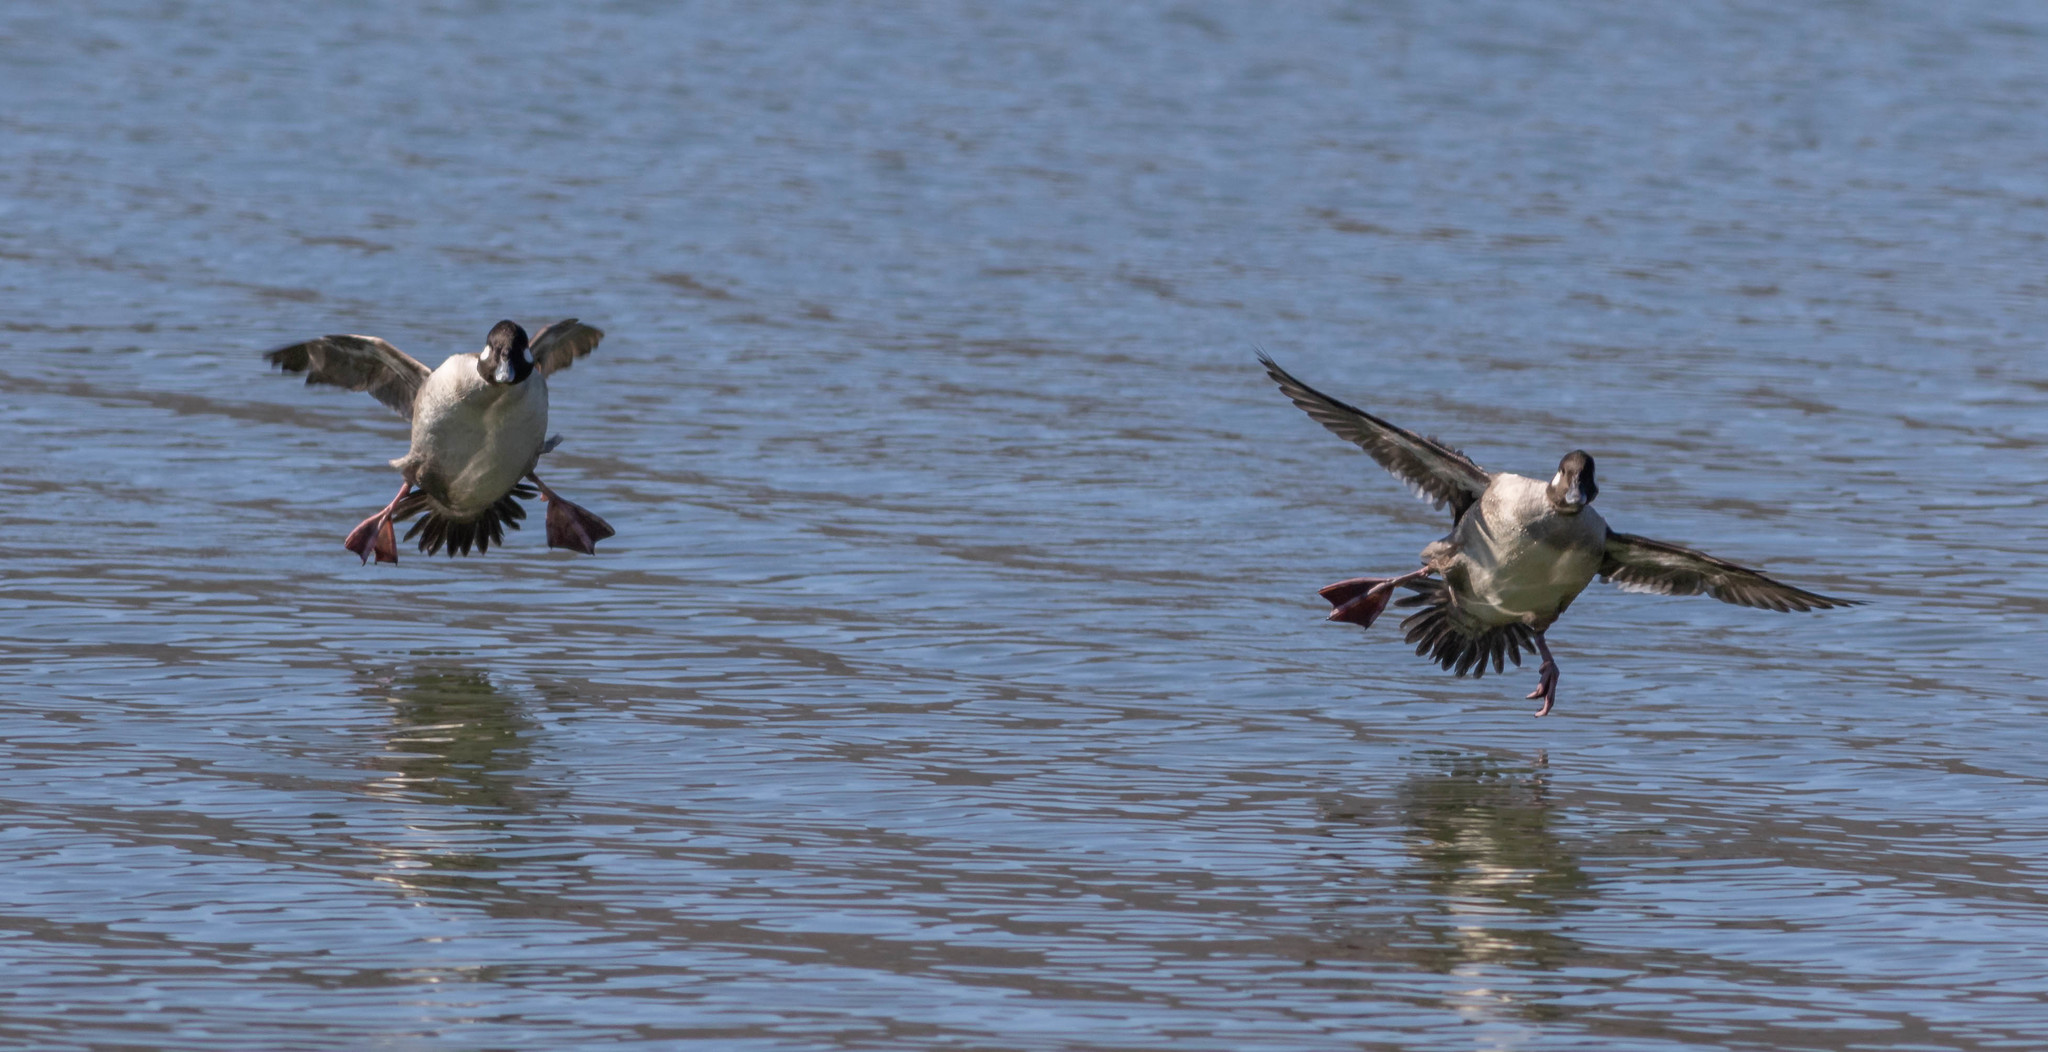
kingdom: Animalia
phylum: Chordata
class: Aves
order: Anseriformes
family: Anatidae
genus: Bucephala
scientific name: Bucephala albeola
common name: Bufflehead
